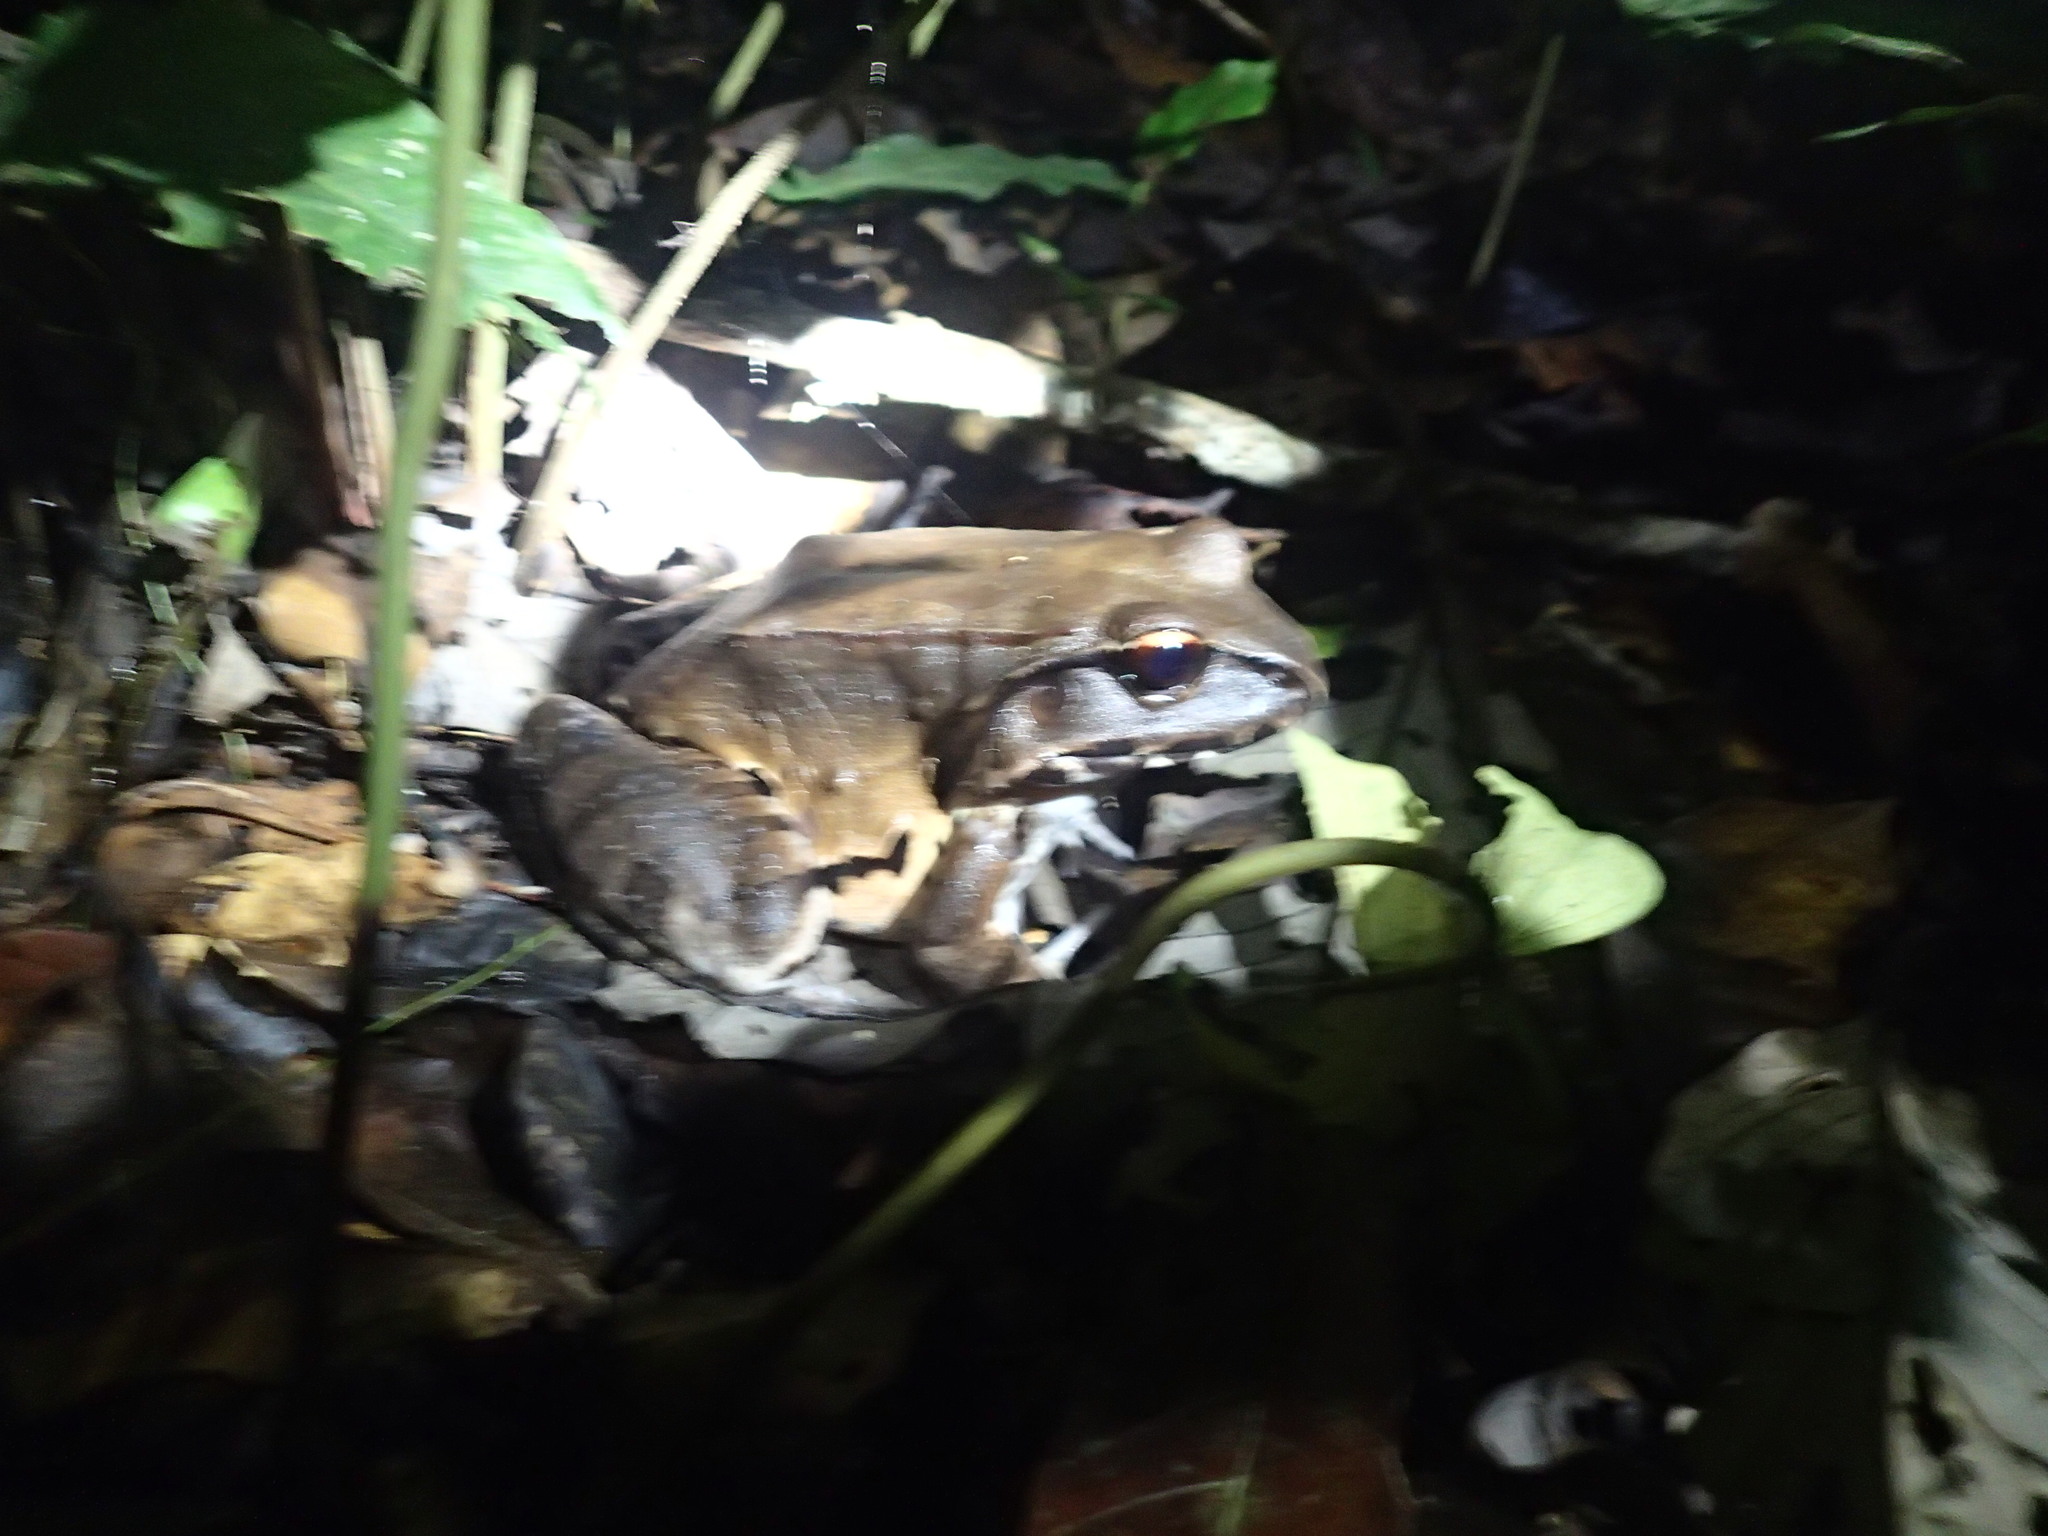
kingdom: Animalia
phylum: Chordata
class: Amphibia
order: Anura
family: Leptodactylidae
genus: Leptodactylus
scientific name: Leptodactylus pentadactylus
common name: Smoky jungle frog
